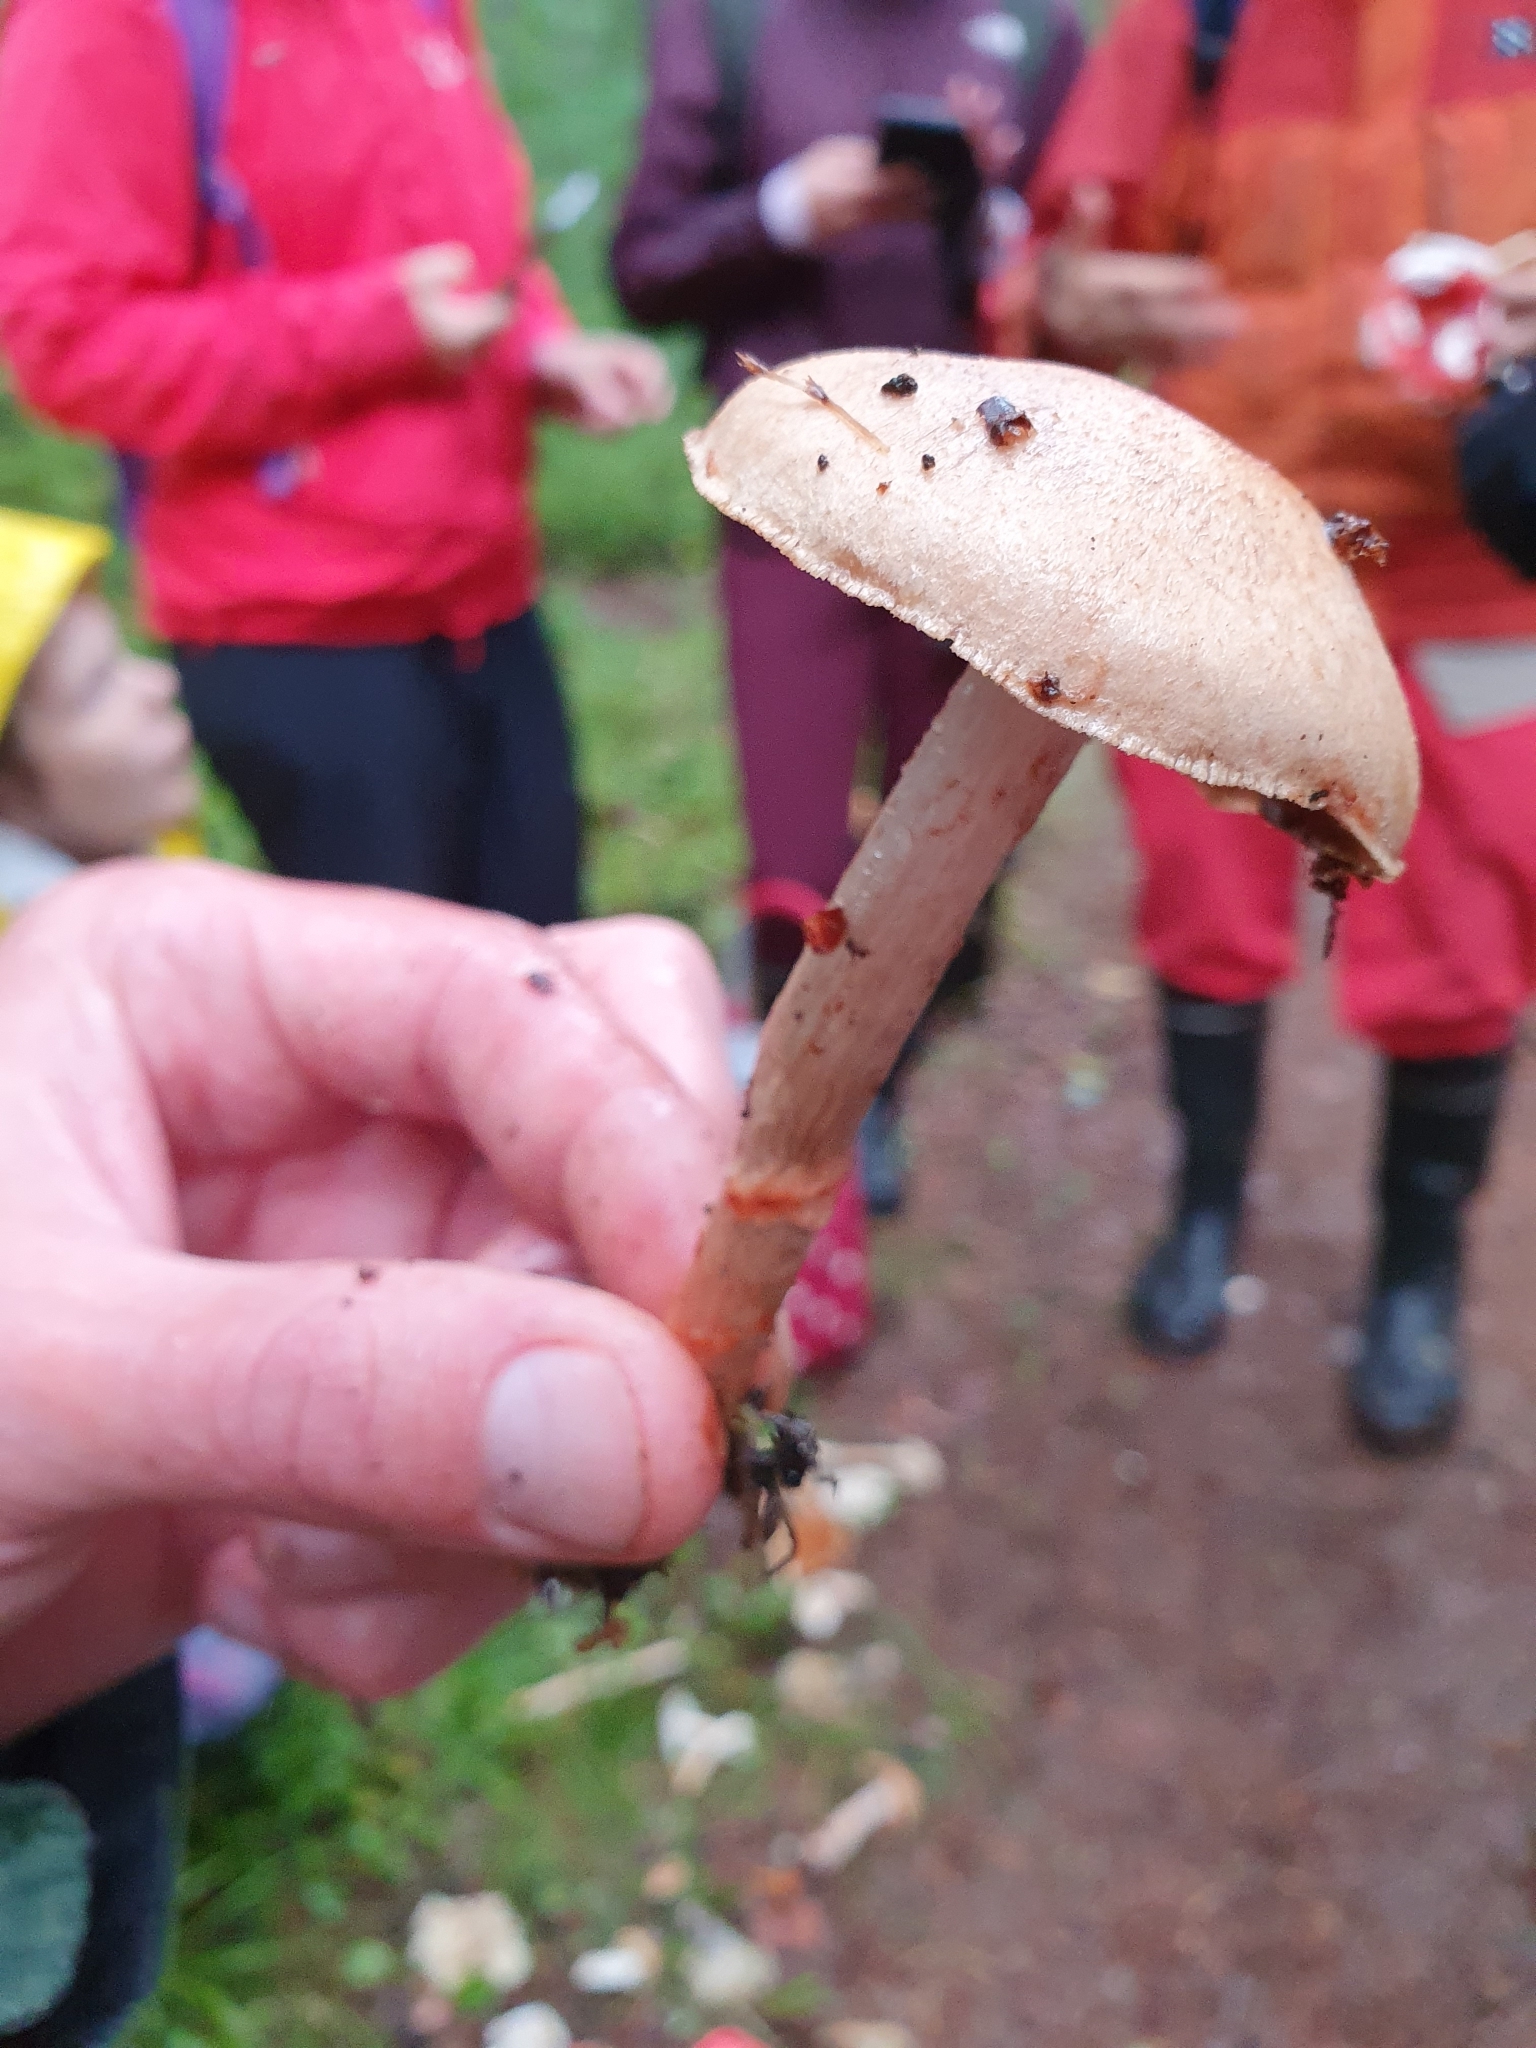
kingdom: Fungi
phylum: Basidiomycota
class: Agaricomycetes
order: Agaricales
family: Cortinariaceae
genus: Cortinarius
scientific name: Cortinarius armillatus
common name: Red banded webcap
